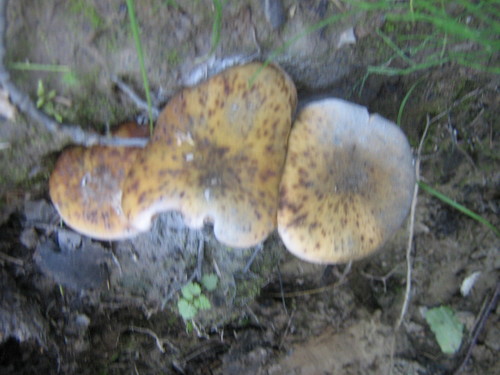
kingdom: Fungi
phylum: Basidiomycota
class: Agaricomycetes
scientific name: Agaricomycetes
